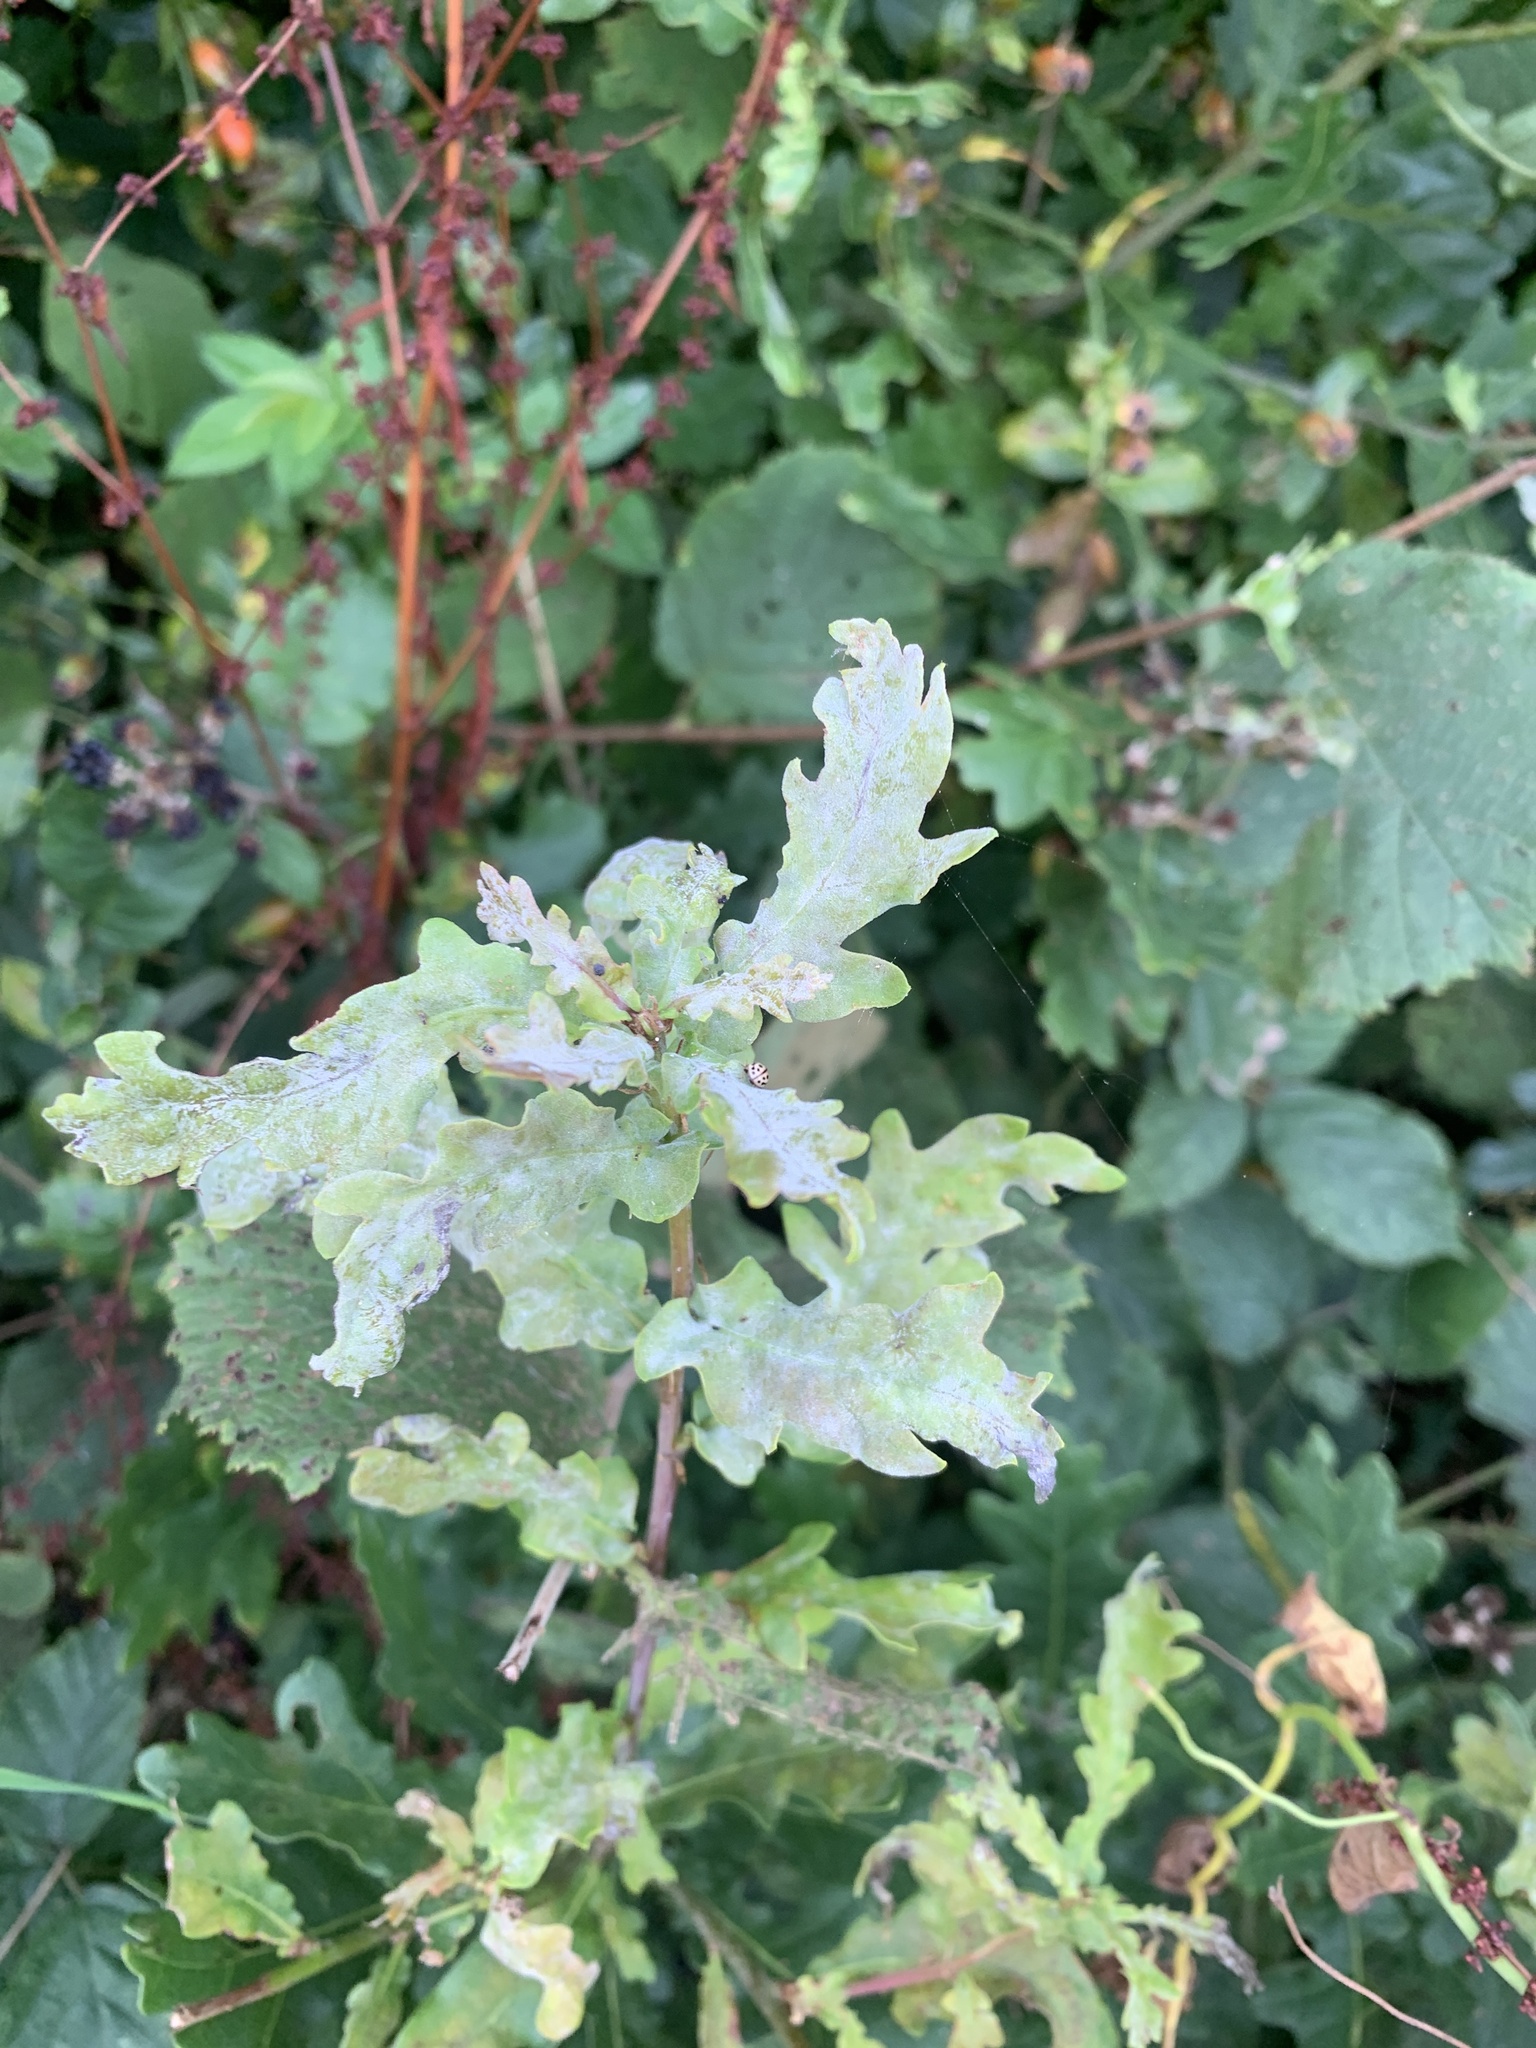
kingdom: Fungi
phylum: Ascomycota
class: Leotiomycetes
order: Helotiales
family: Erysiphaceae
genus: Erysiphe
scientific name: Erysiphe alphitoides
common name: Oak mildew
